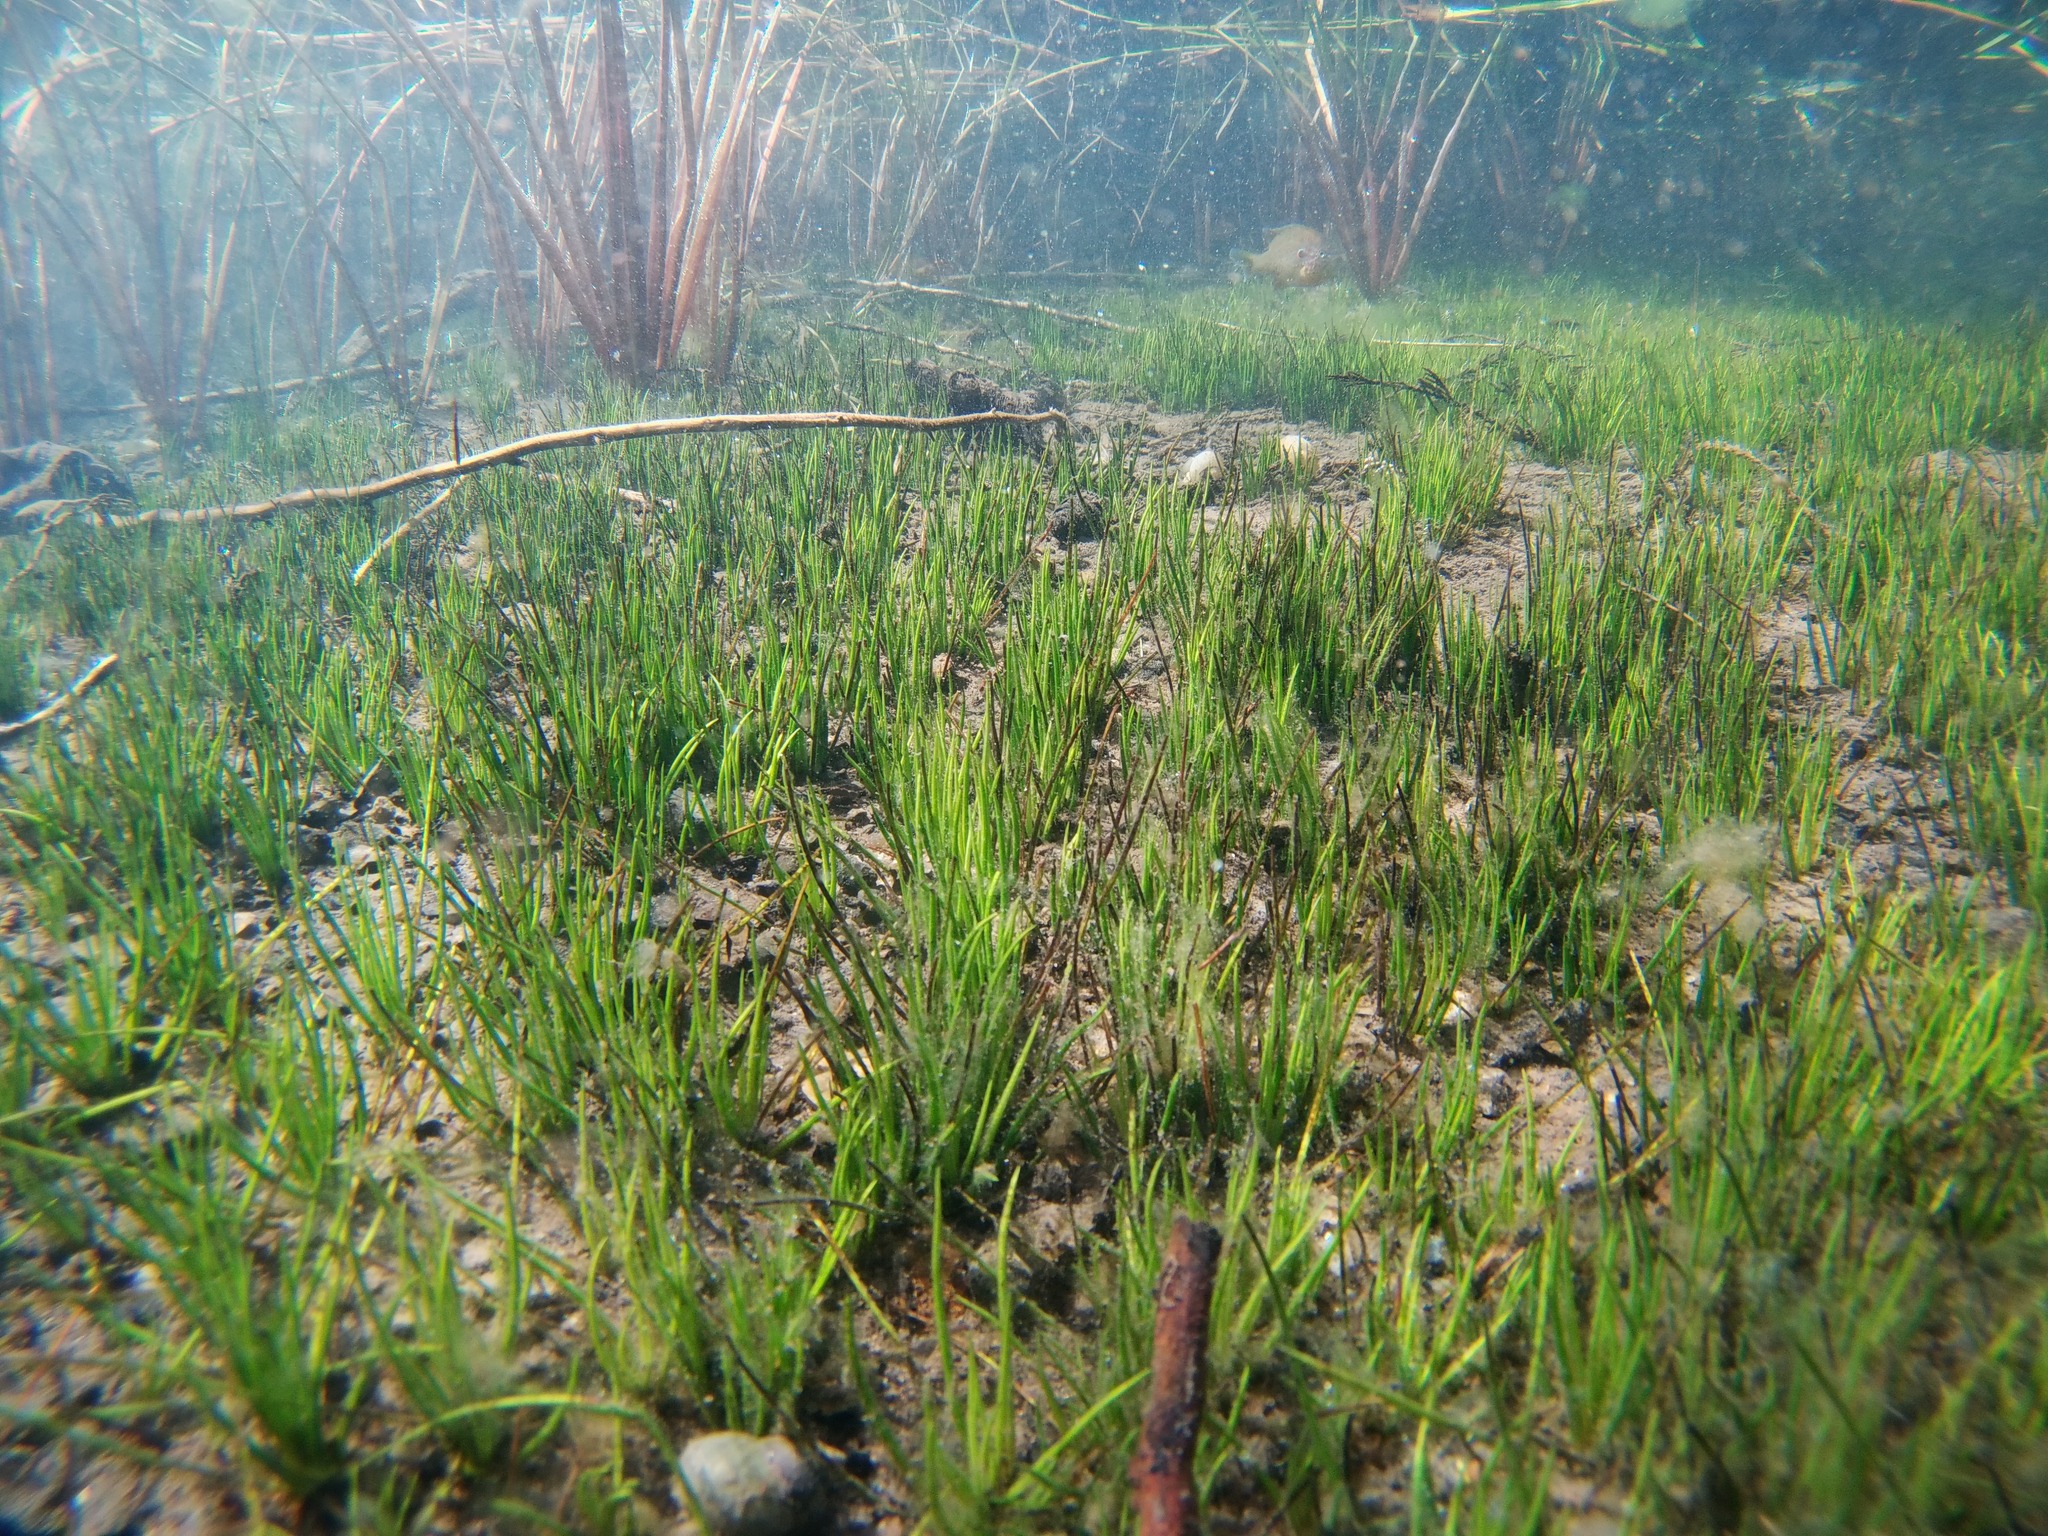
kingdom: Plantae
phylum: Tracheophyta
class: Lycopodiopsida
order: Isoetales
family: Isoetaceae
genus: Isoetes
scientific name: Isoetes occidentalis
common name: Western quillwort
